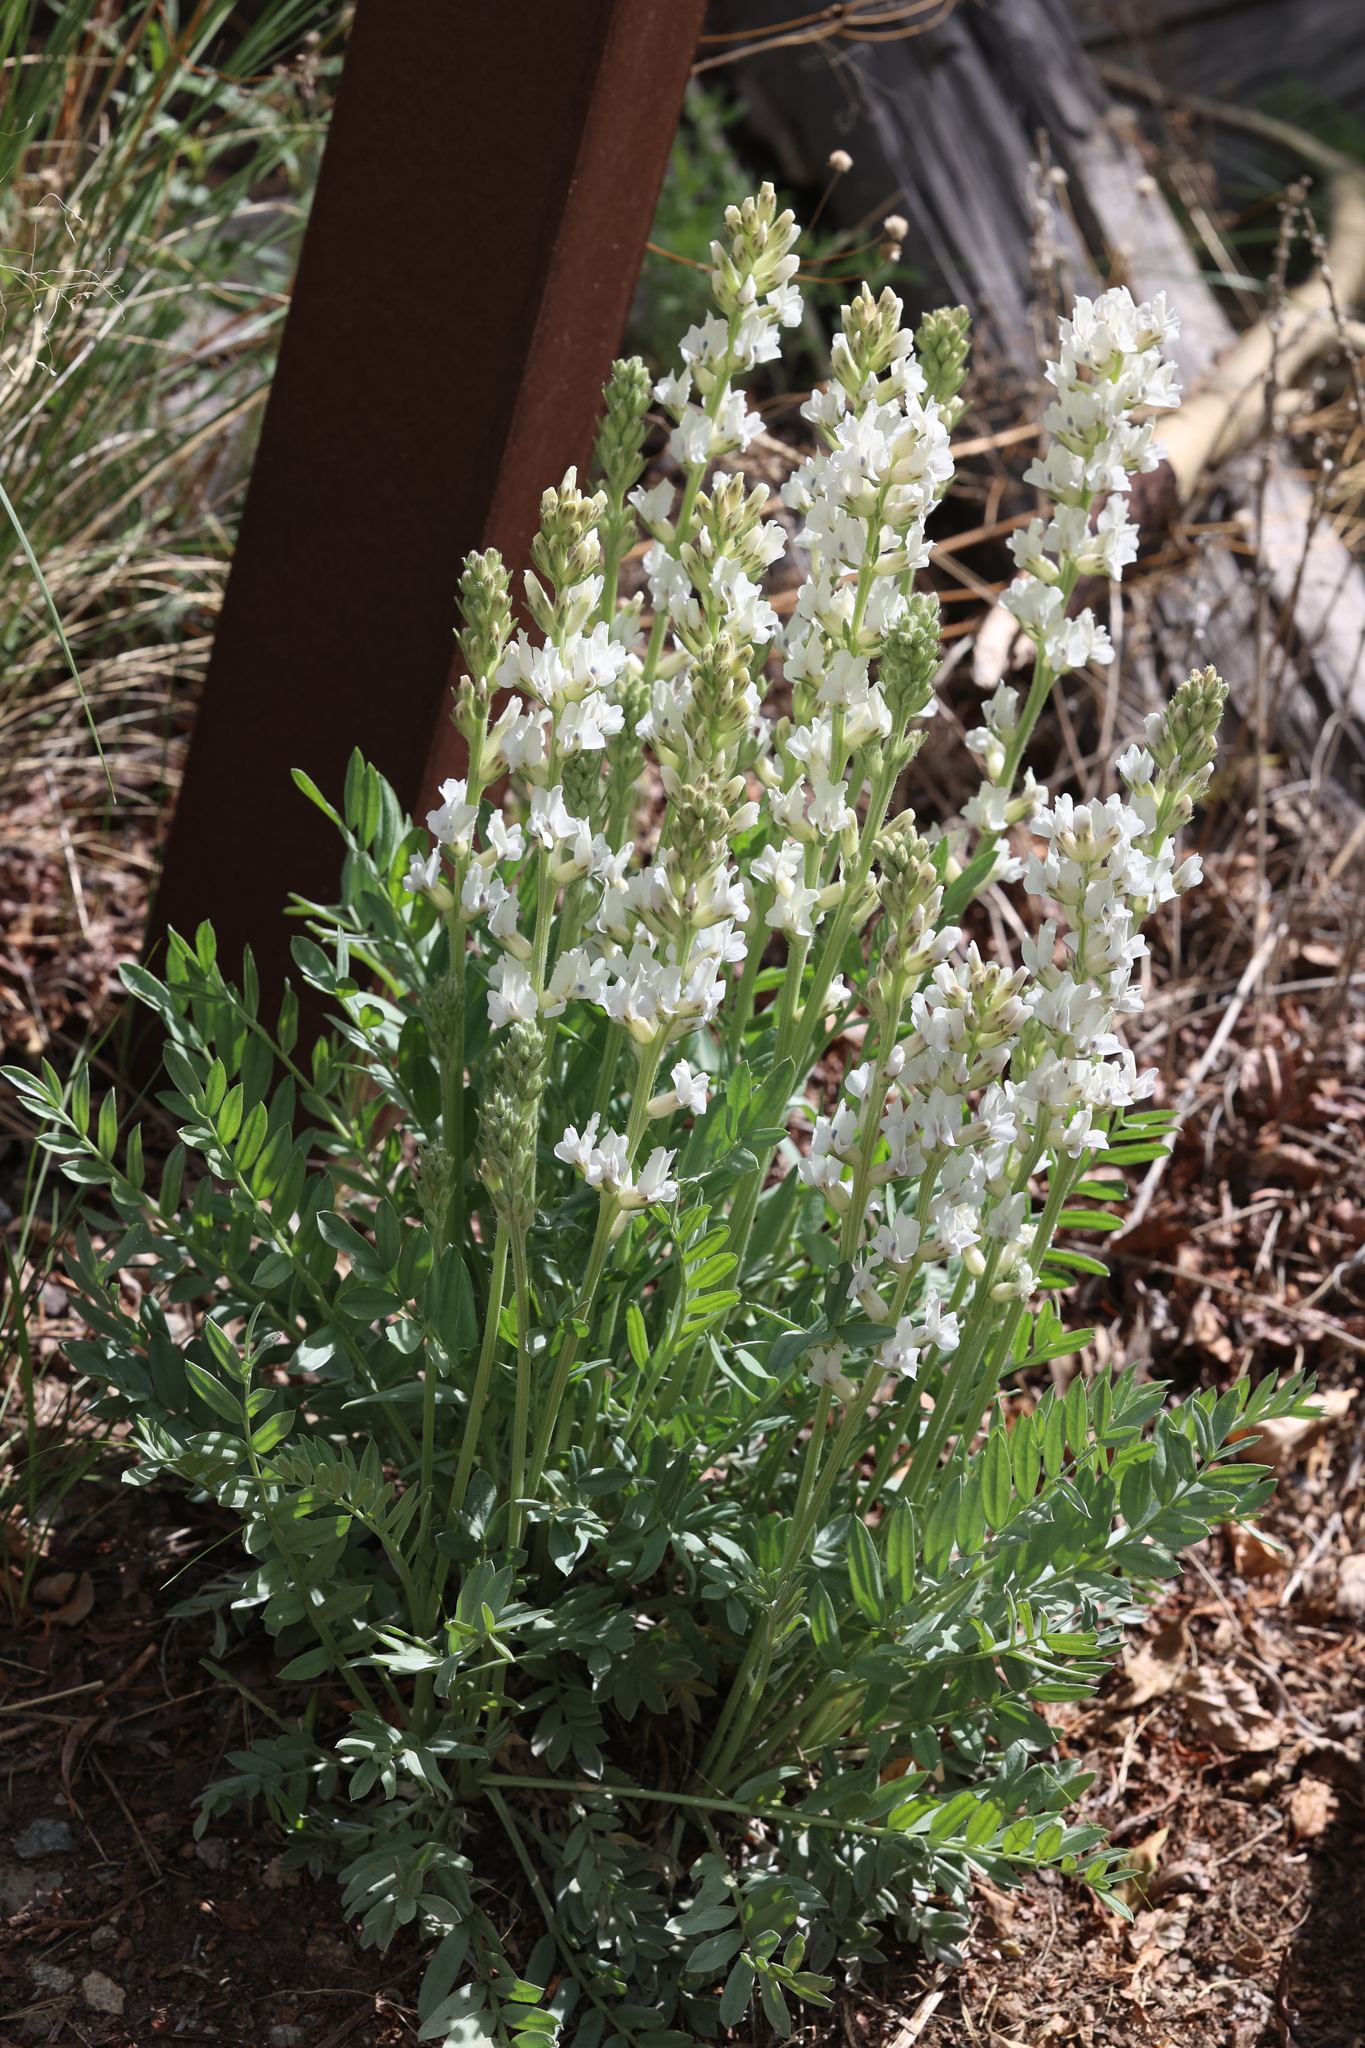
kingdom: Plantae
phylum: Tracheophyta
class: Magnoliopsida
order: Fabales
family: Fabaceae
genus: Oxytropis
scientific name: Oxytropis sericea
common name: Silky locoweed
